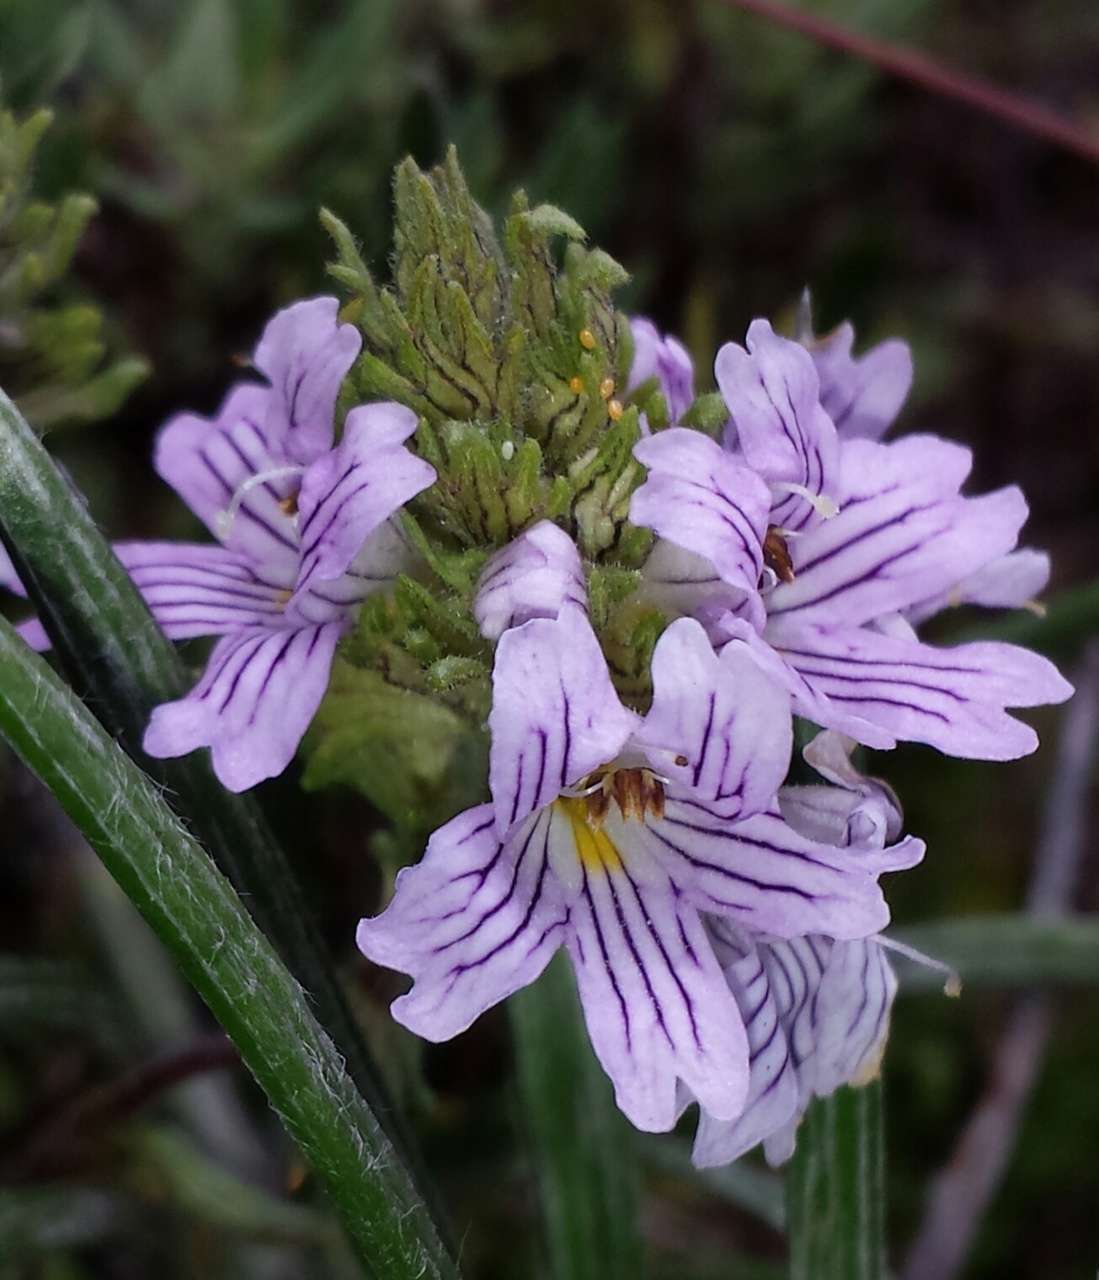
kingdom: Plantae
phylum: Tracheophyta
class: Magnoliopsida
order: Lamiales
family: Orobanchaceae
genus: Euphrasia
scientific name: Euphrasia eichleri
